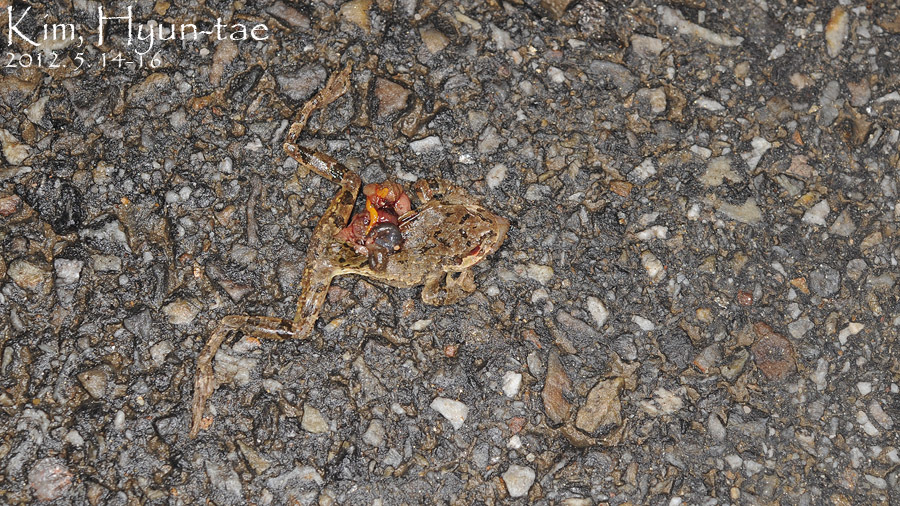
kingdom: Animalia
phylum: Chordata
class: Amphibia
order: Anura
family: Hylidae
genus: Dryophytes
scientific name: Dryophytes japonicus
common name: Japanese treefrog
